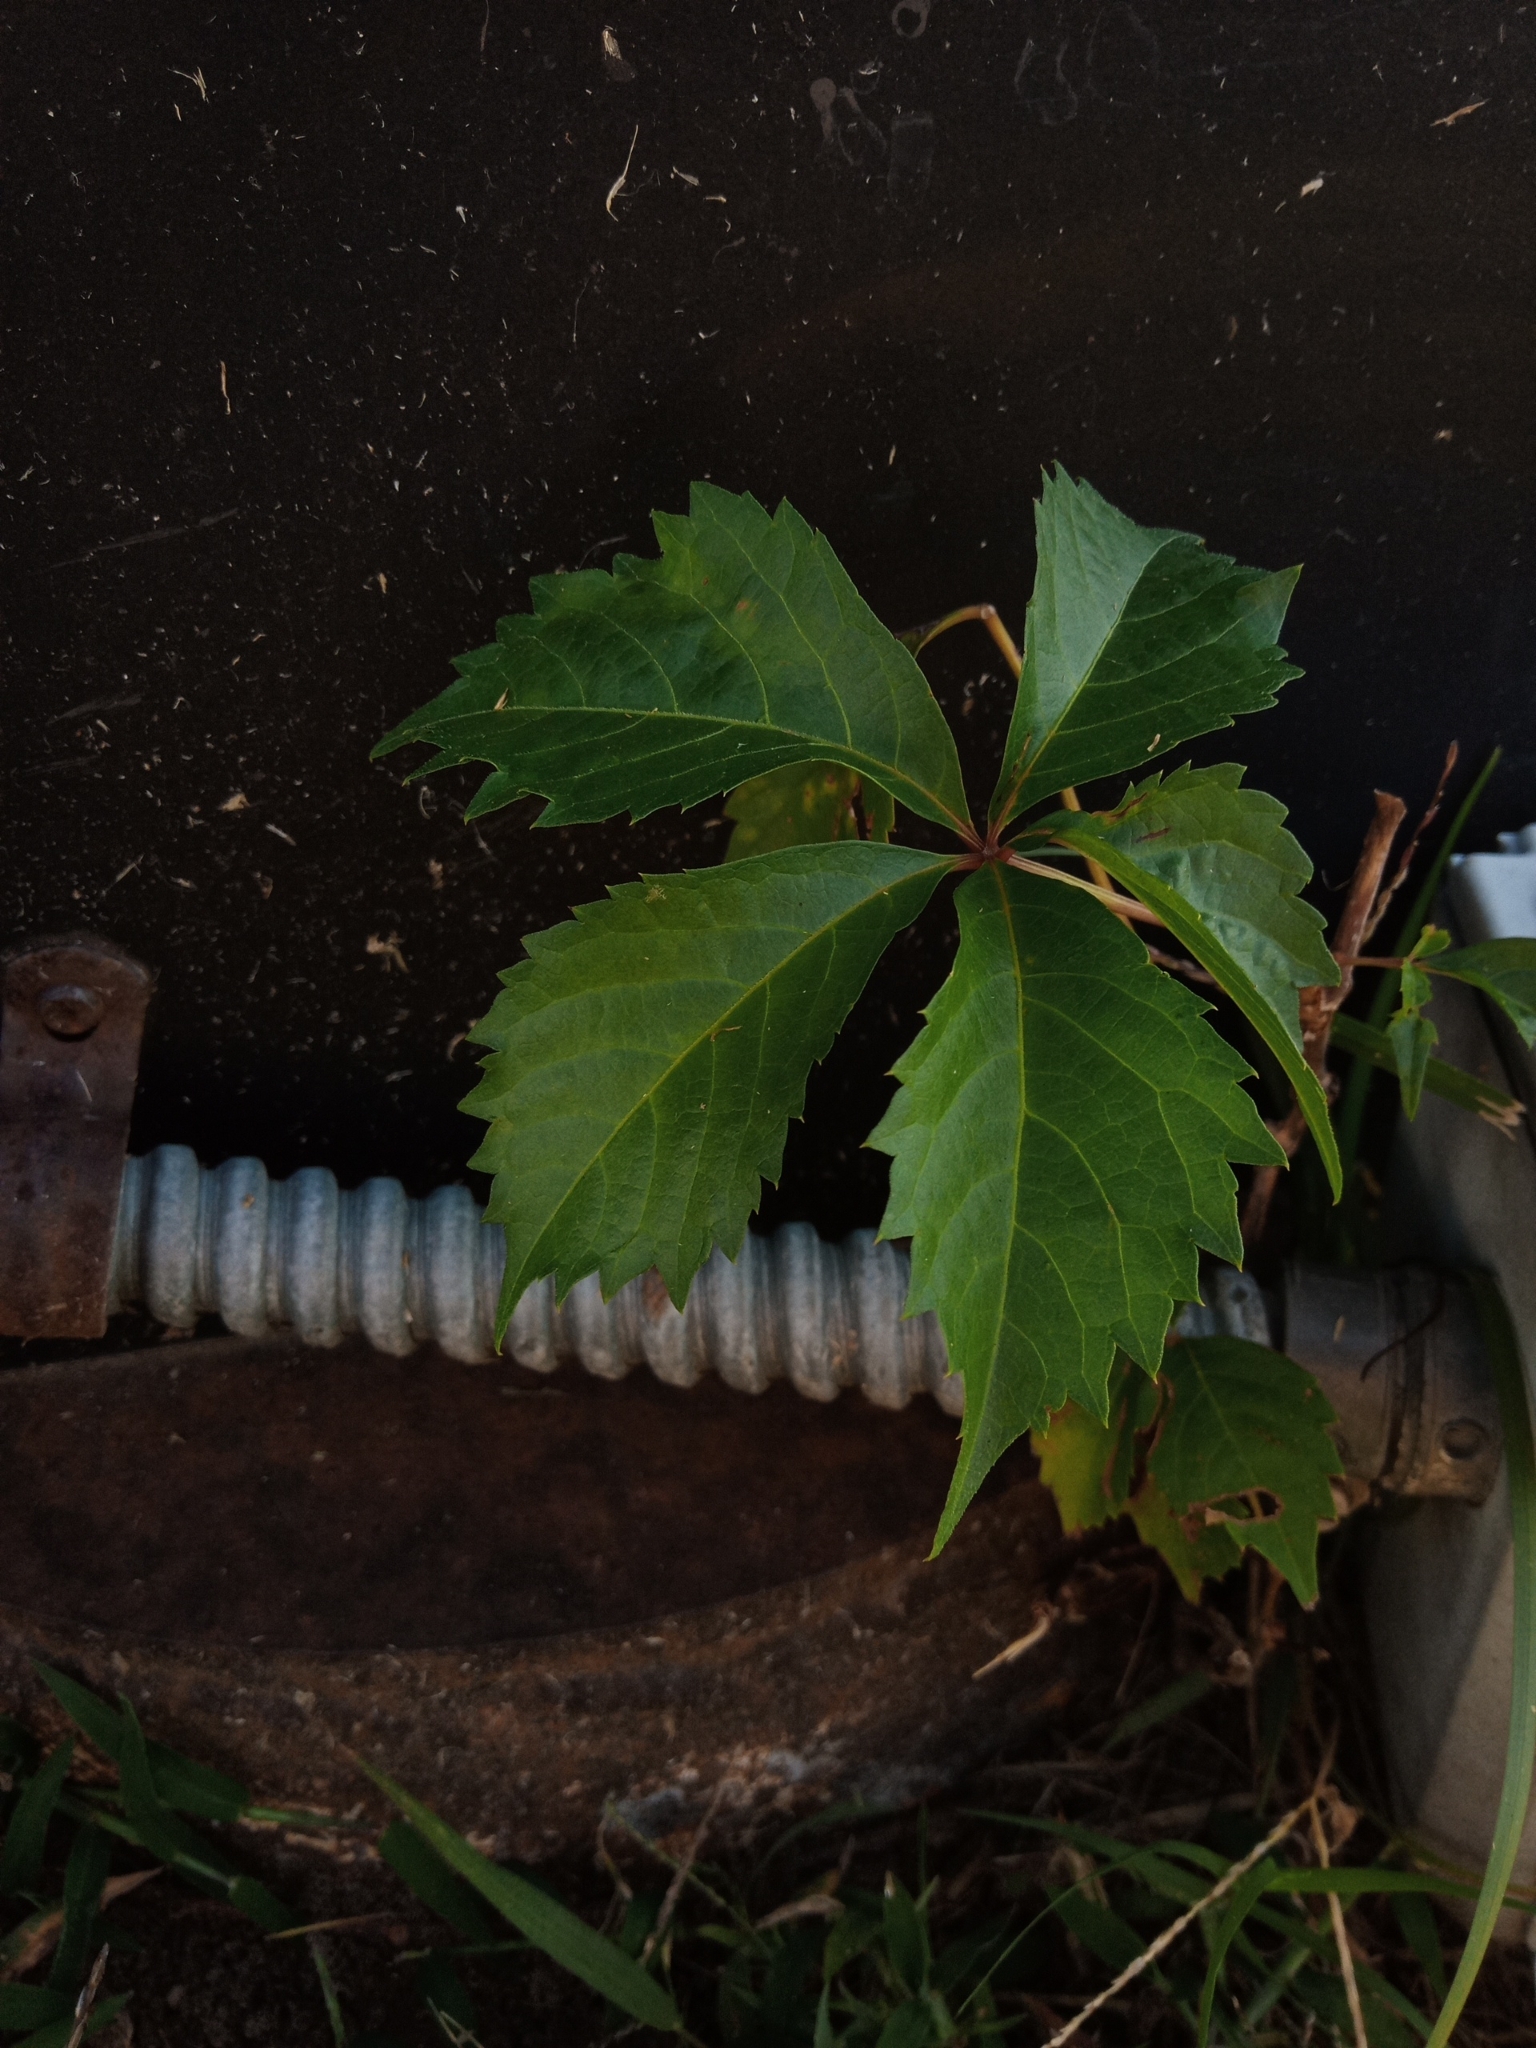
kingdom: Plantae
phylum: Tracheophyta
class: Magnoliopsida
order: Vitales
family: Vitaceae
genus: Parthenocissus
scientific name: Parthenocissus quinquefolia
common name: Virginia-creeper
